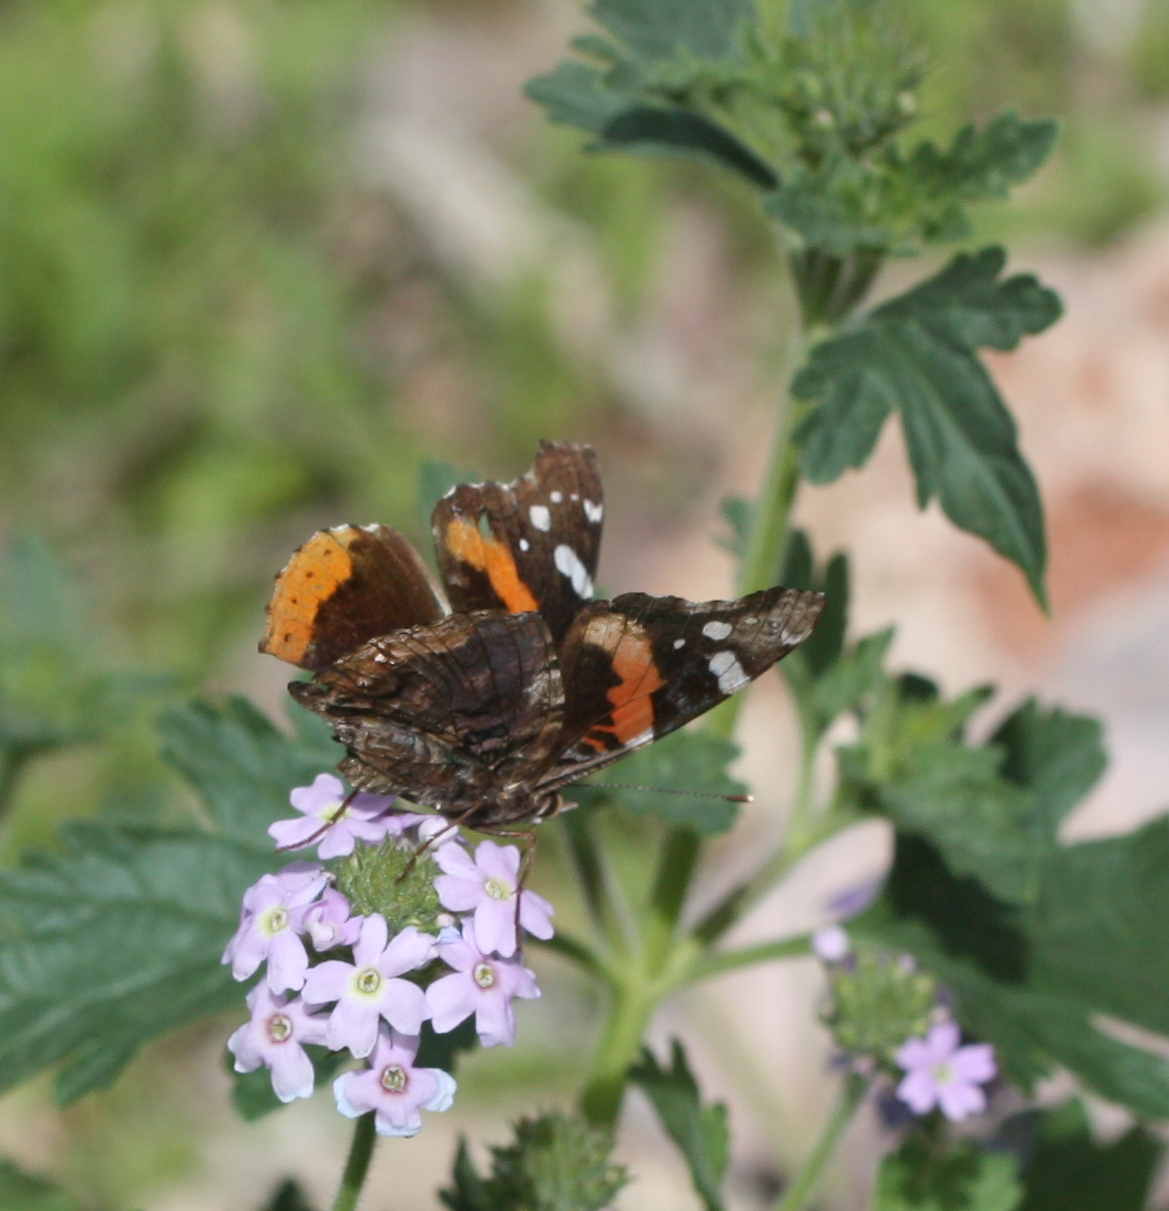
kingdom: Animalia
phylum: Arthropoda
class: Insecta
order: Lepidoptera
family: Nymphalidae
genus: Vanessa
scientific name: Vanessa atalanta
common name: Red admiral
